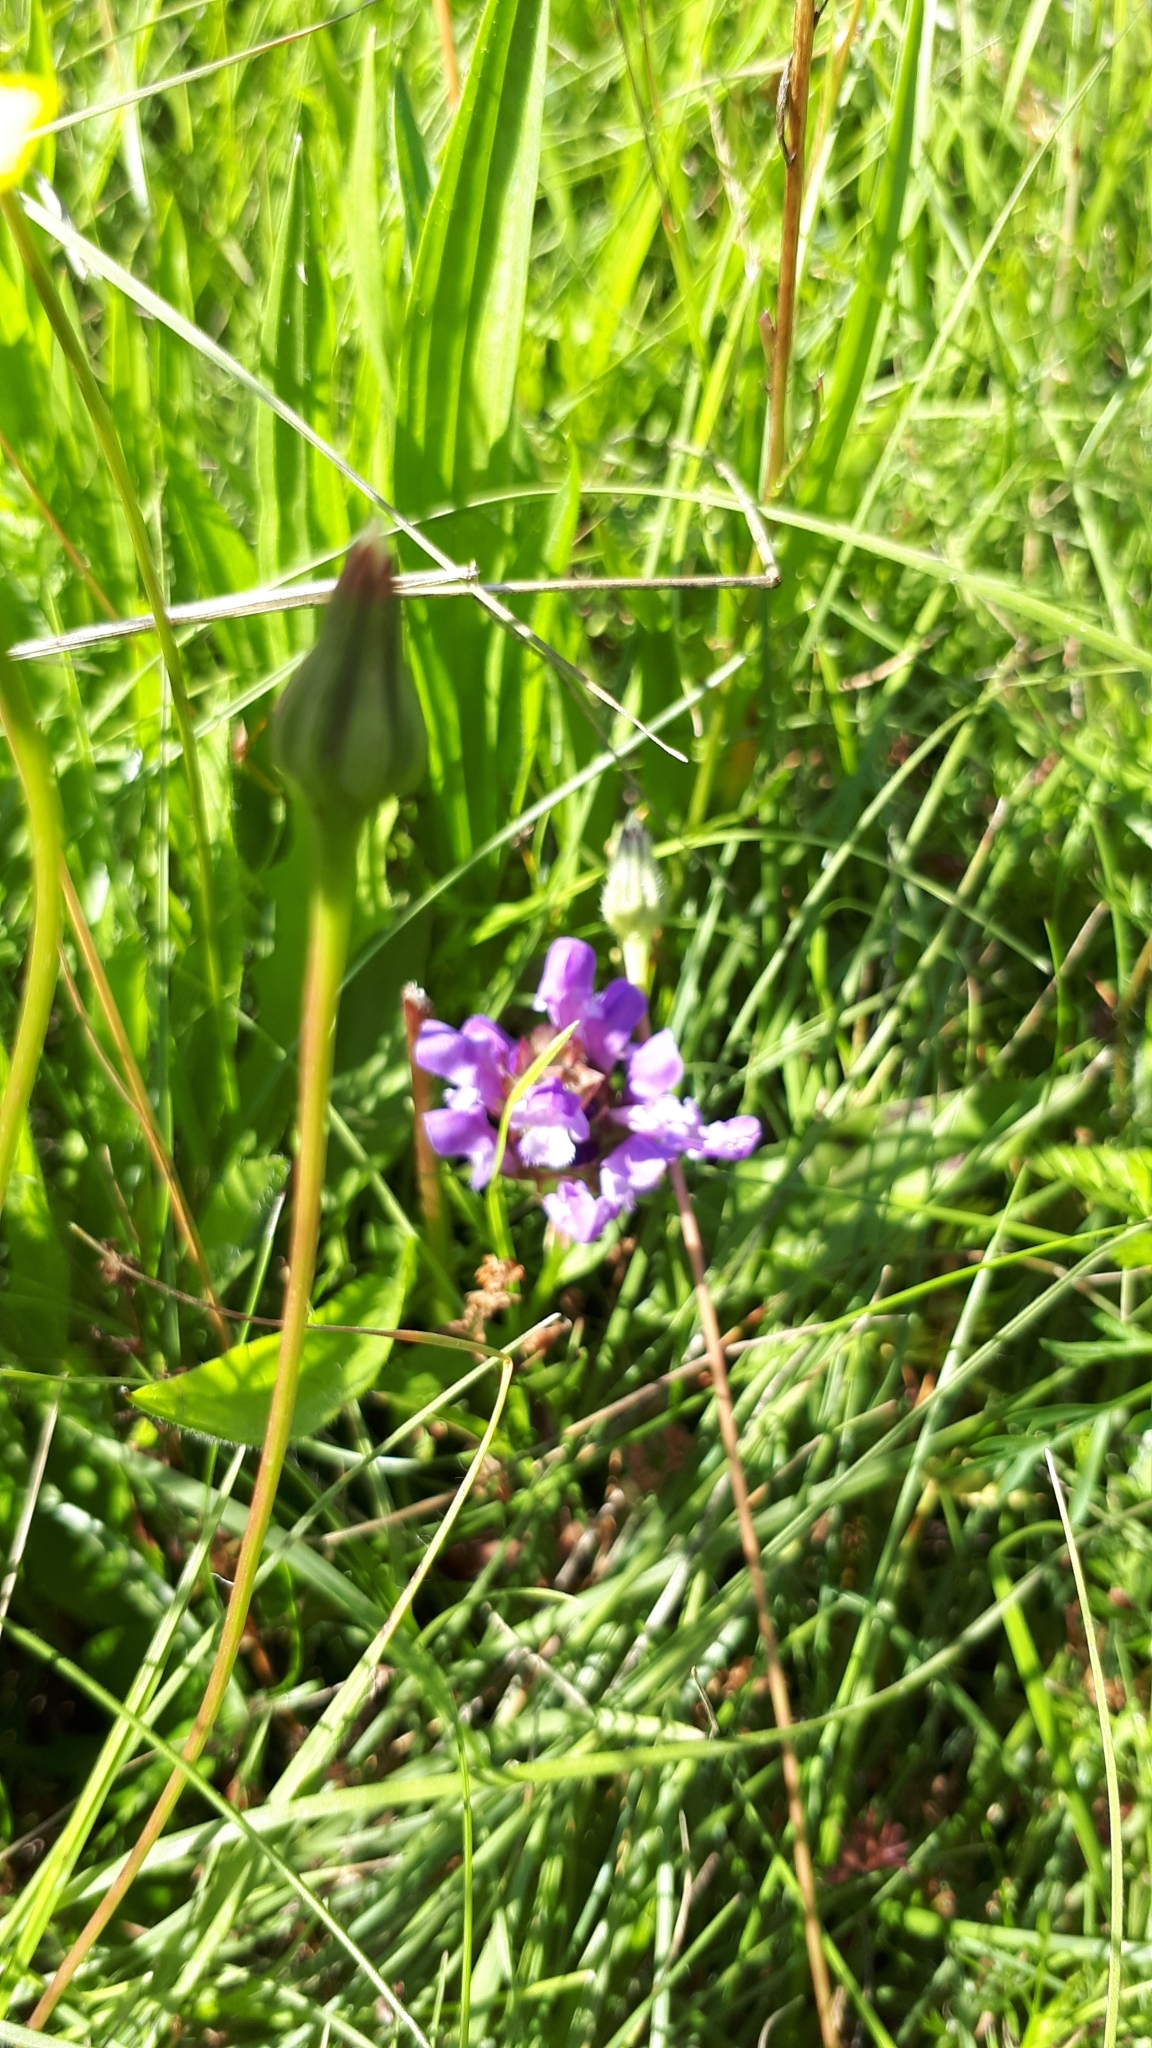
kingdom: Plantae
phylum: Tracheophyta
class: Magnoliopsida
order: Lamiales
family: Lamiaceae
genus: Prunella
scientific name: Prunella vulgaris
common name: Heal-all
